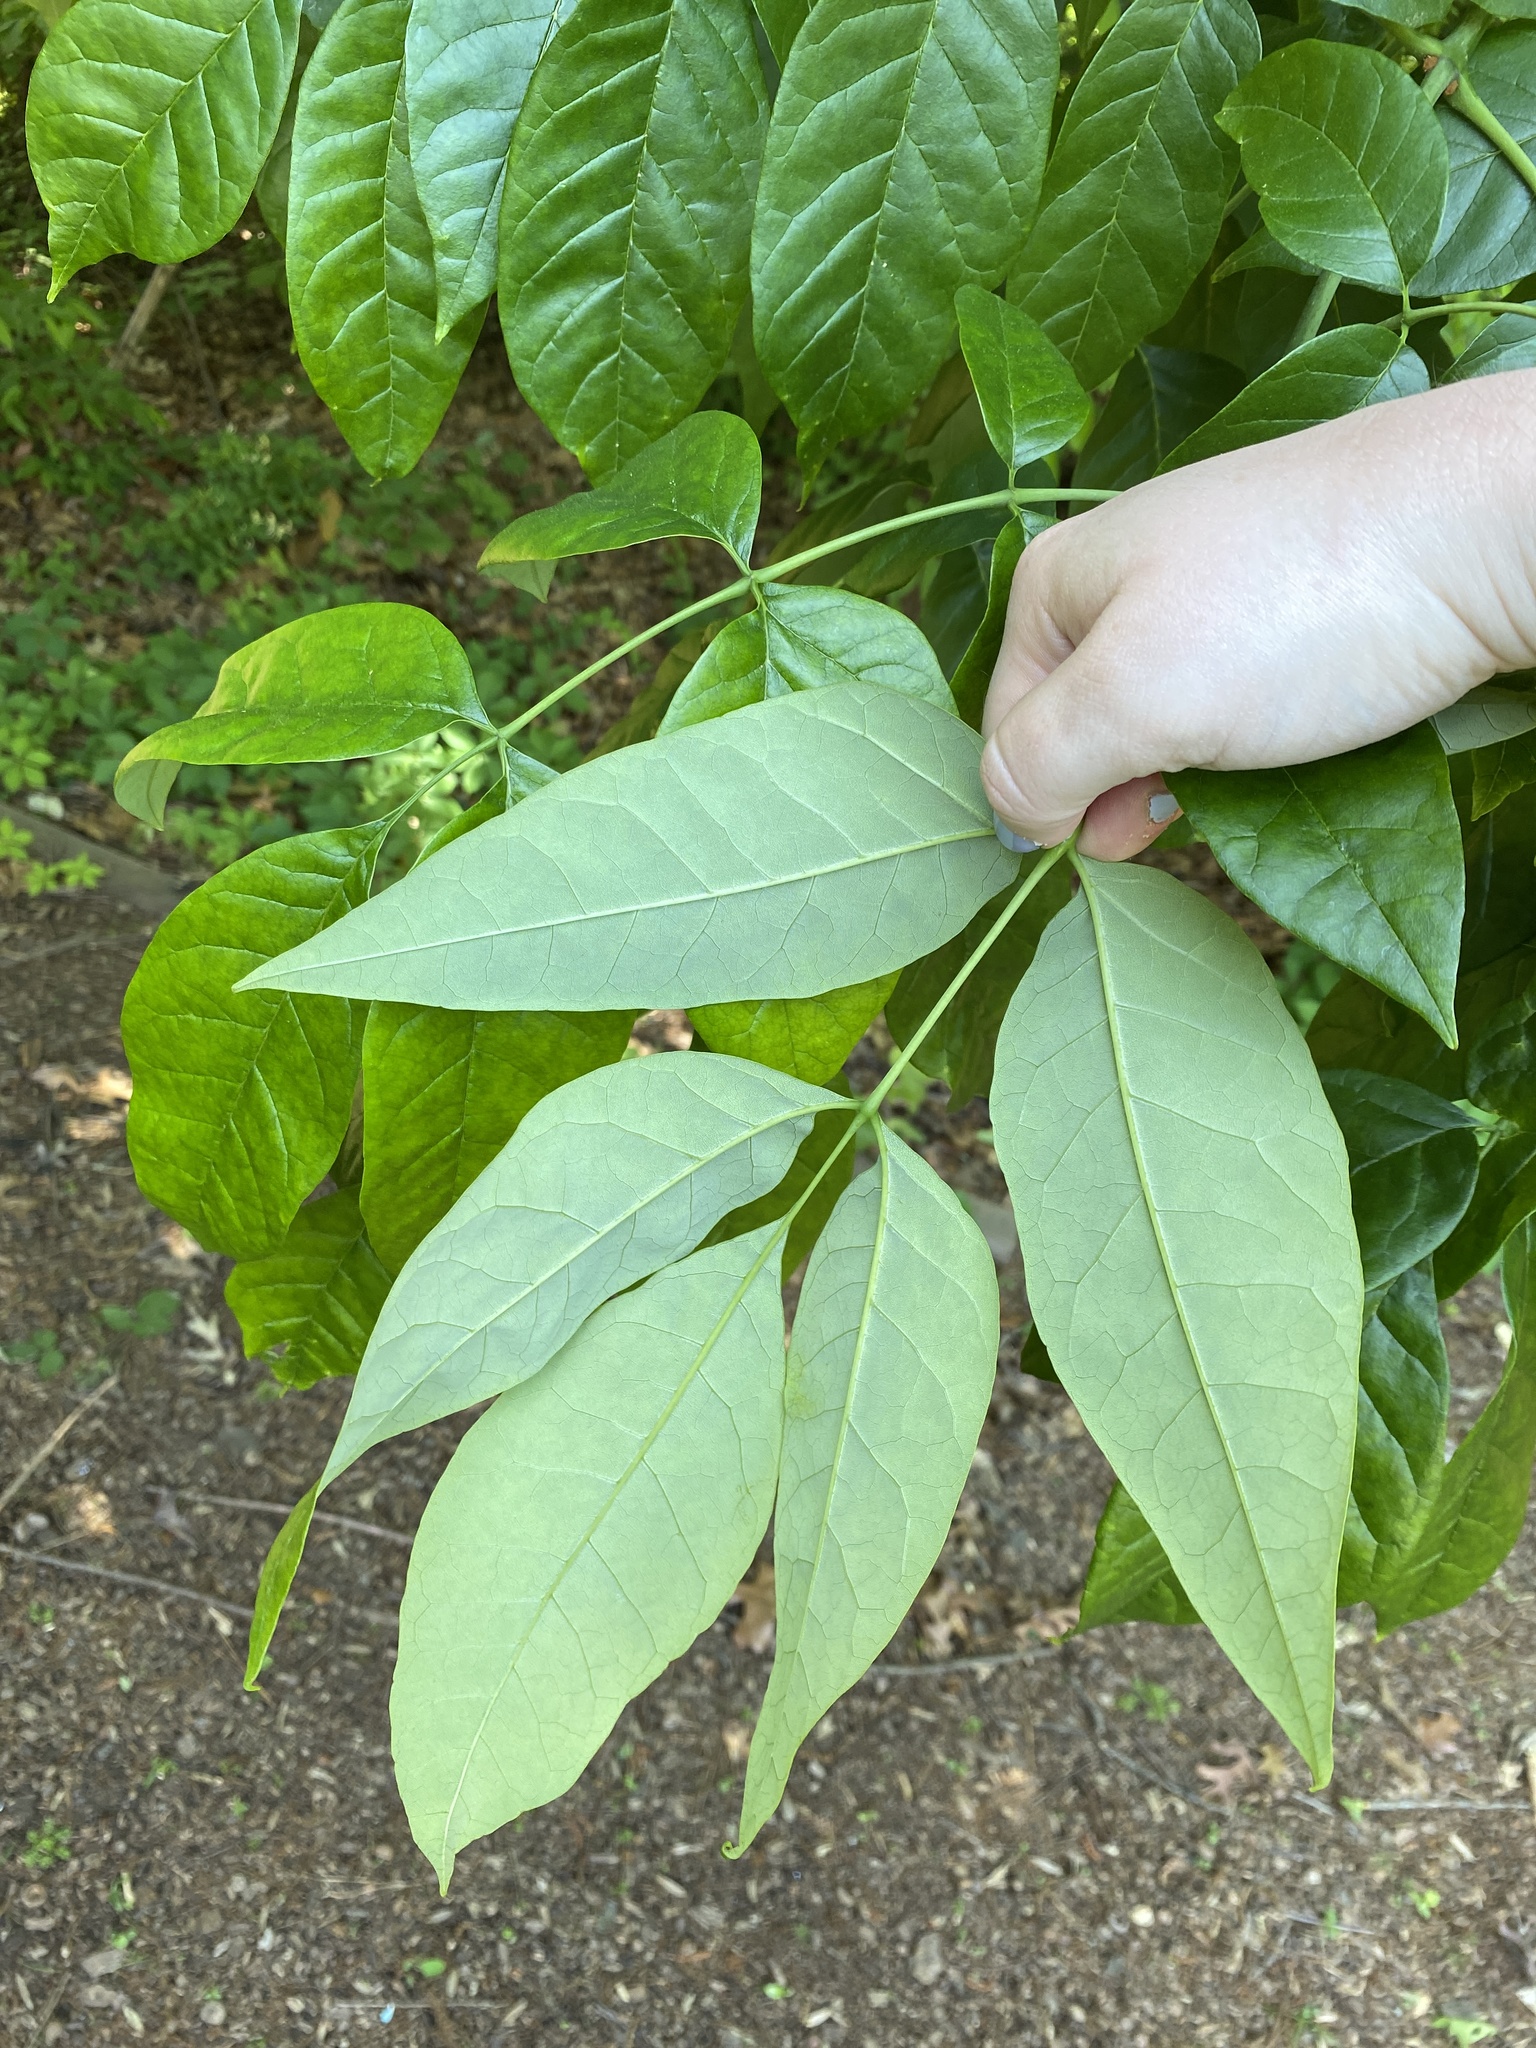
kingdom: Plantae
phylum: Tracheophyta
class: Magnoliopsida
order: Lamiales
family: Oleaceae
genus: Fraxinus
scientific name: Fraxinus americana
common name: White ash
